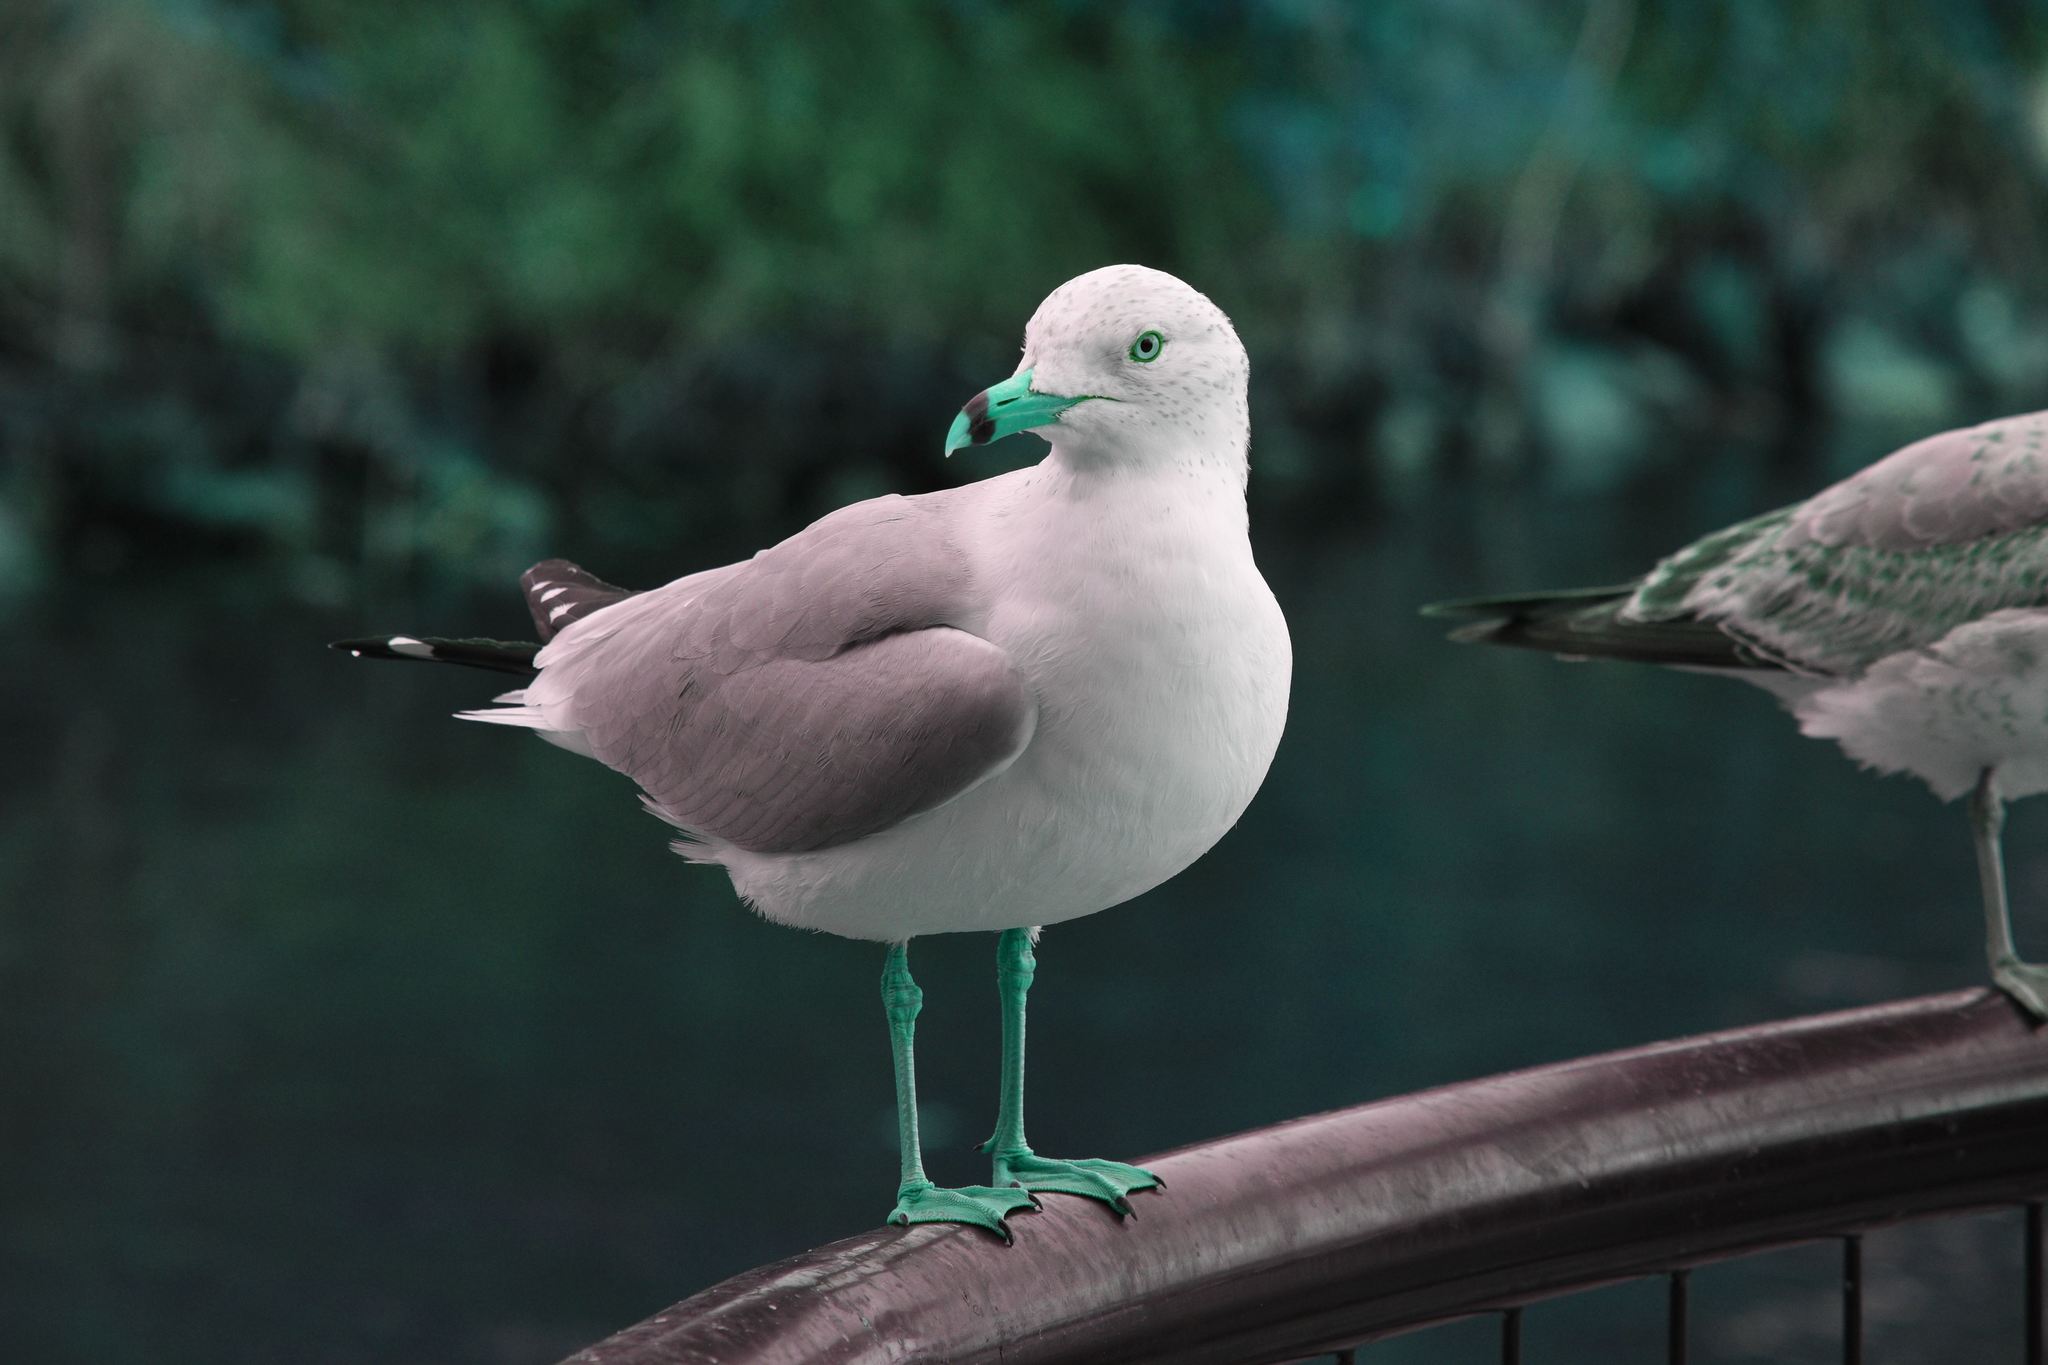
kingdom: Animalia
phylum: Chordata
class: Aves
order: Charadriiformes
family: Laridae
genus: Larus
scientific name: Larus delawarensis
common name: Ring-billed gull
